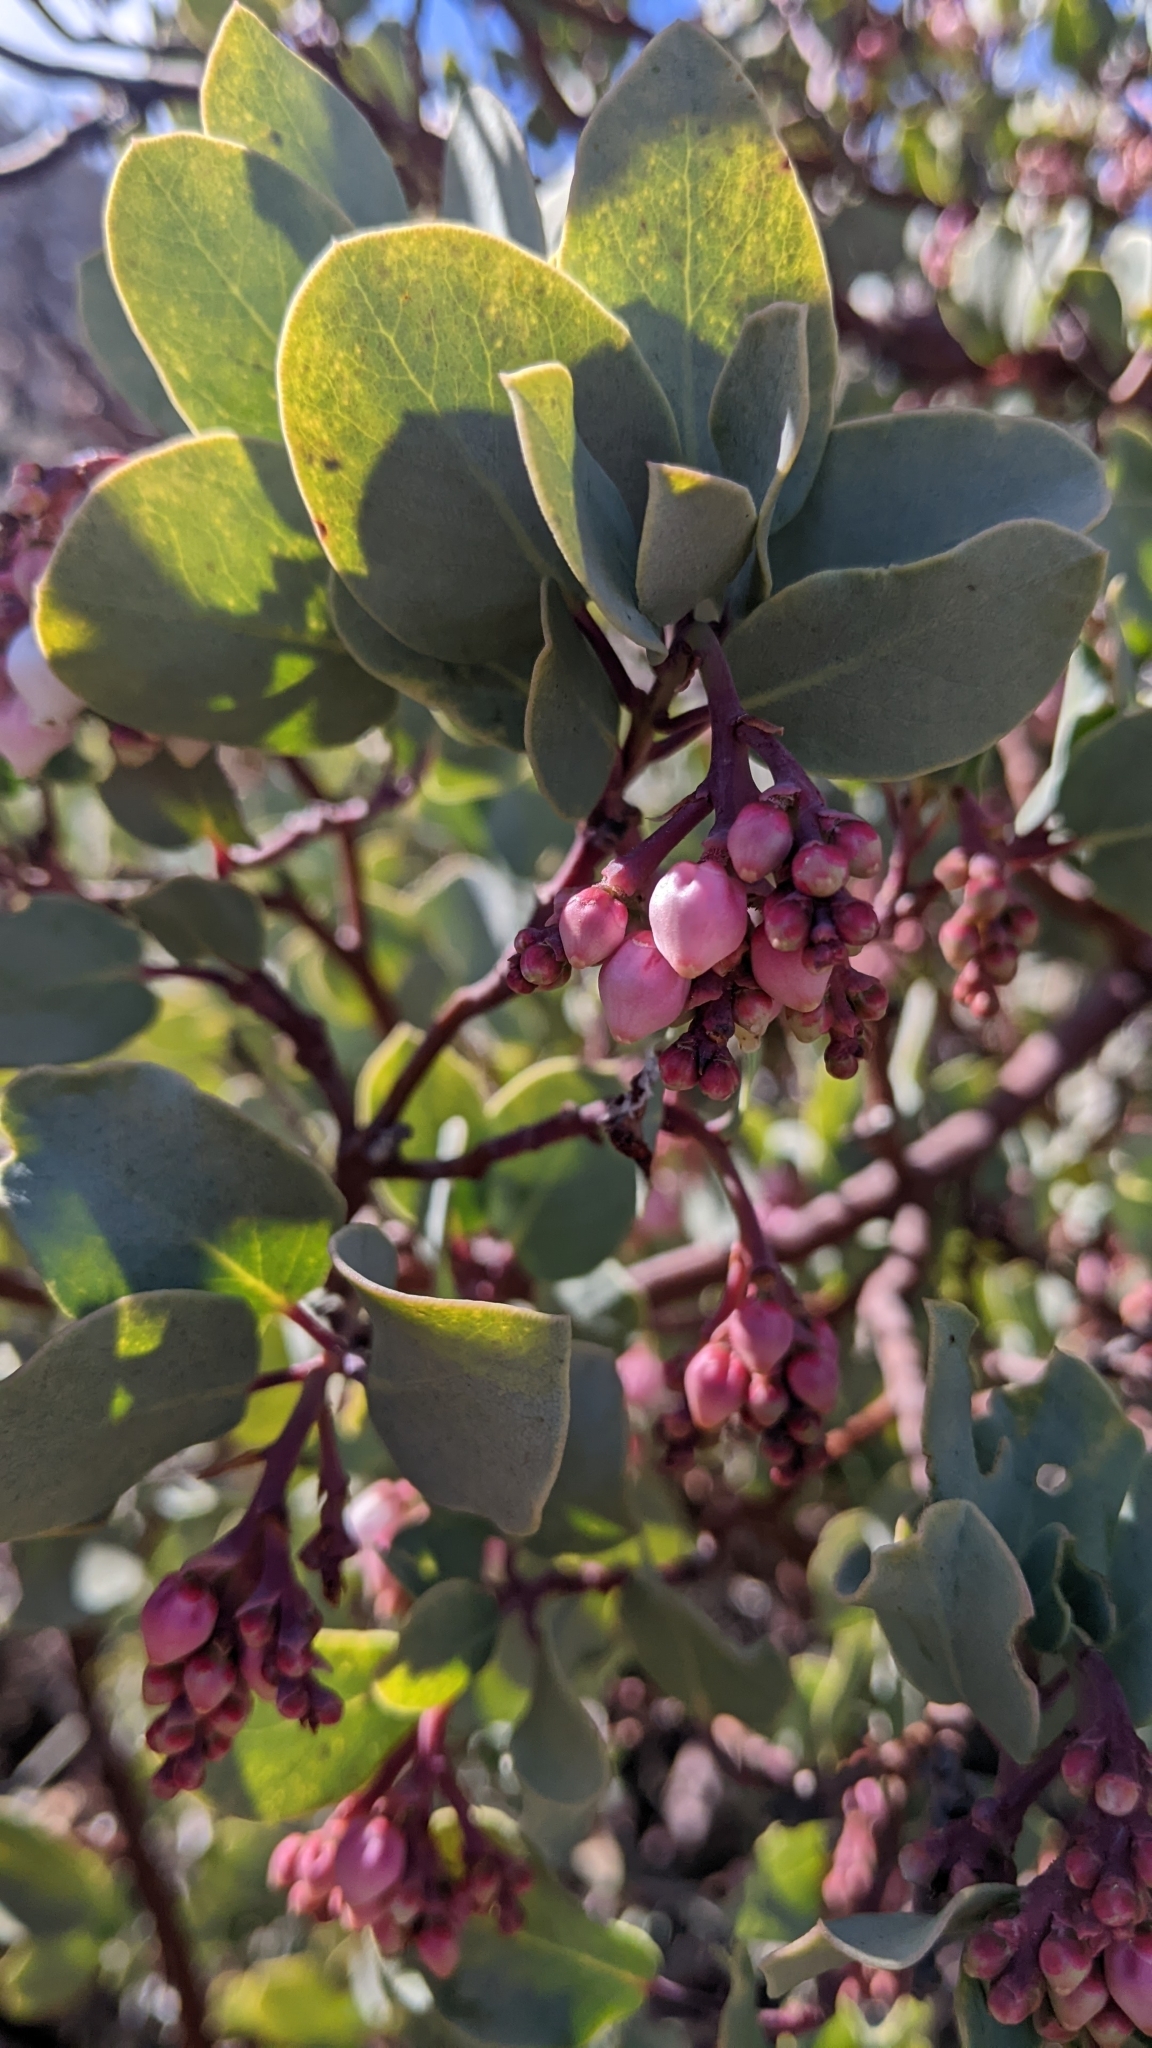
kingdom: Plantae
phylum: Tracheophyta
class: Magnoliopsida
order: Ericales
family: Ericaceae
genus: Arctostaphylos
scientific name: Arctostaphylos glauca
